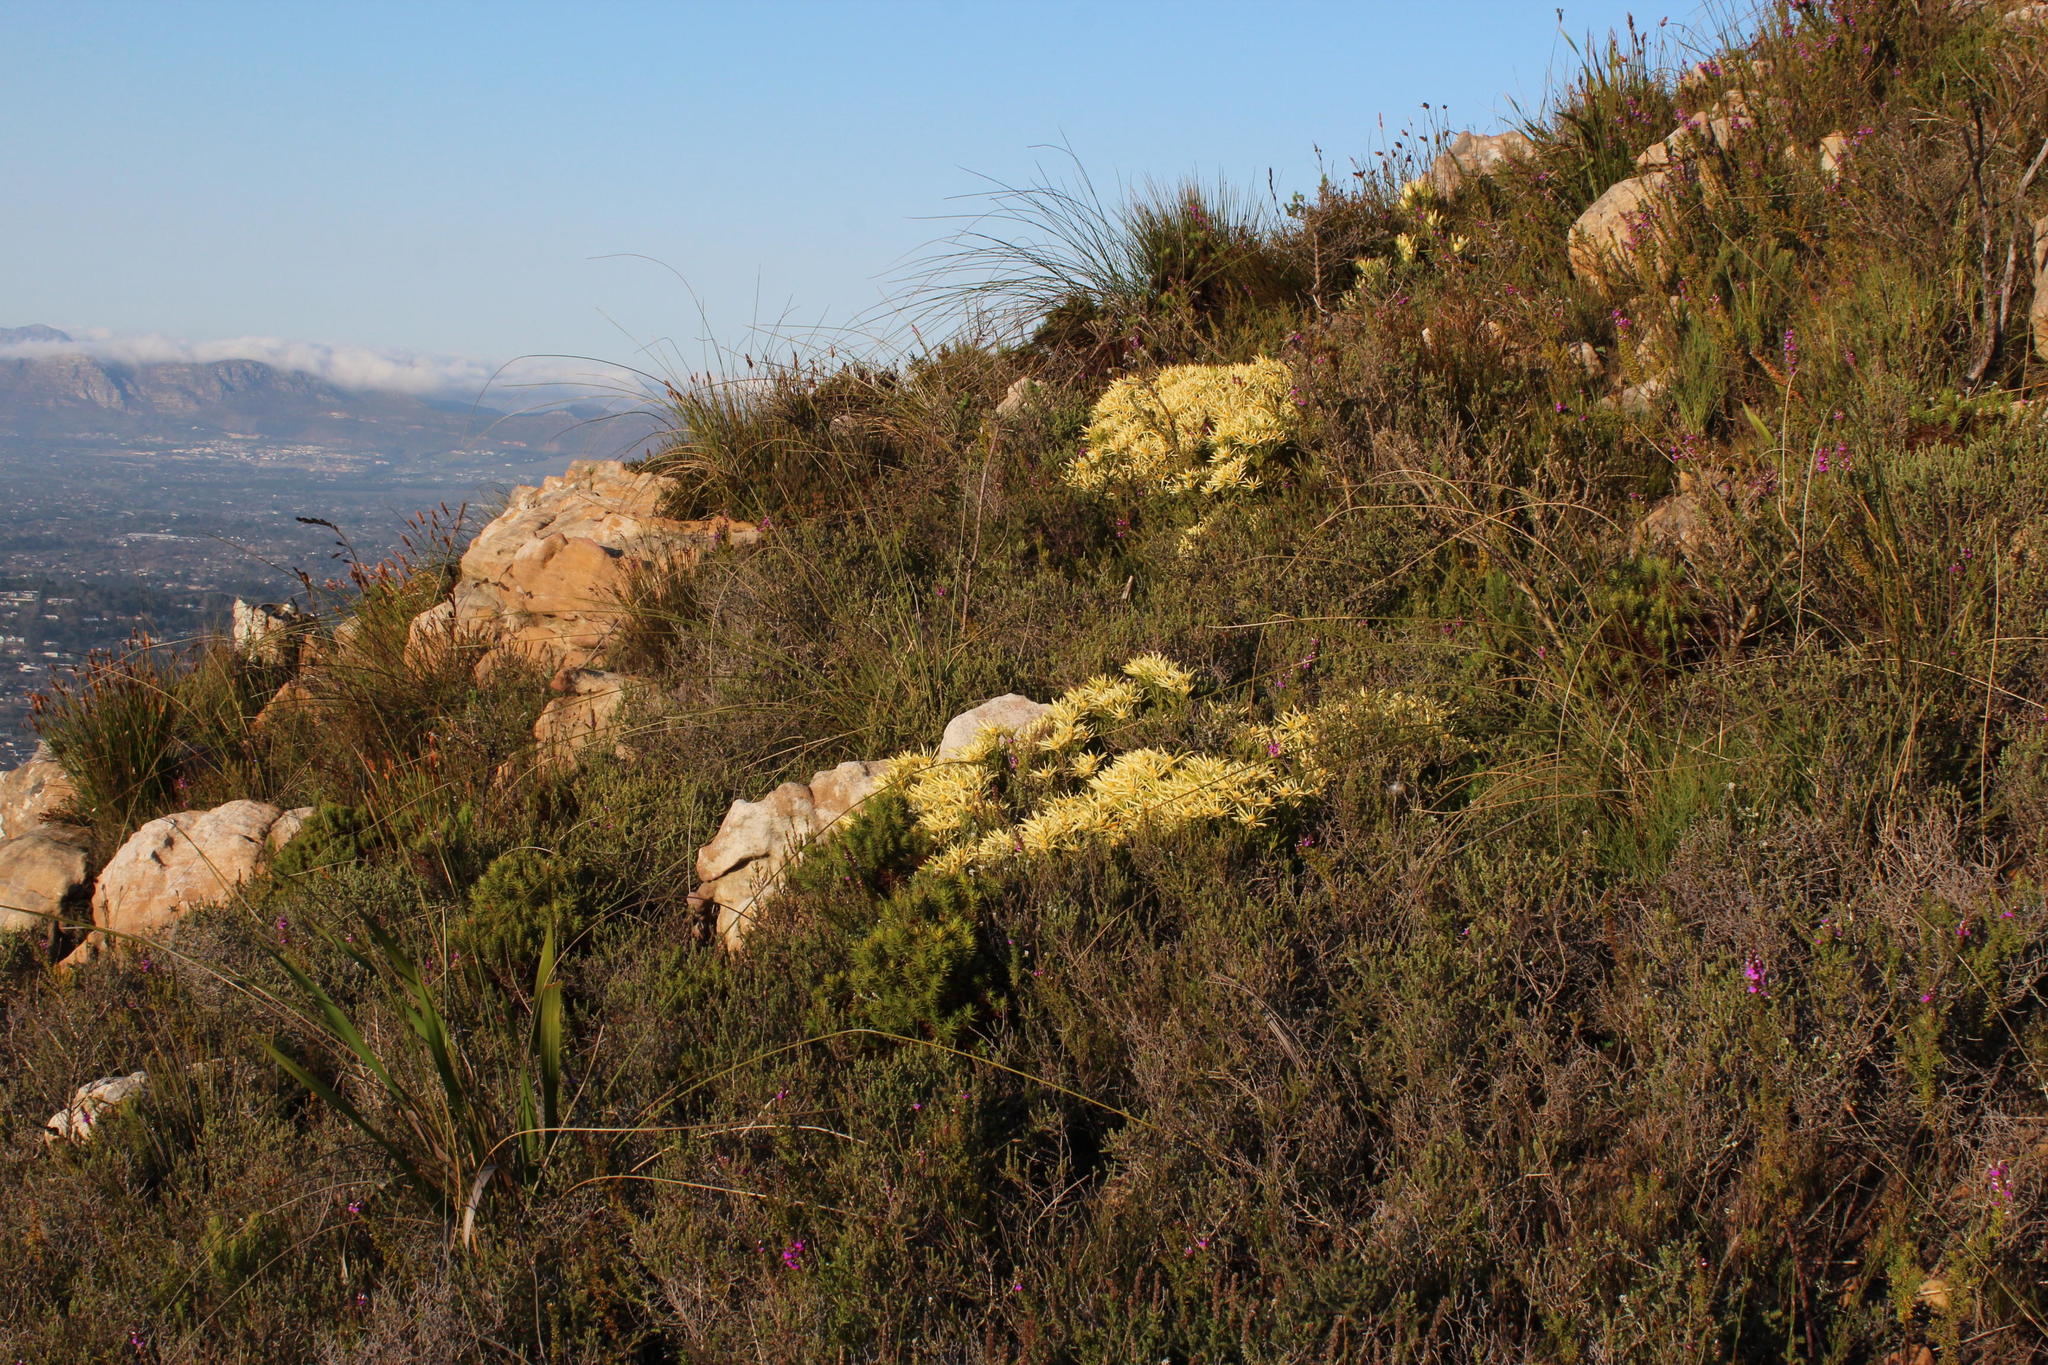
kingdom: Plantae
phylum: Tracheophyta
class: Magnoliopsida
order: Proteales
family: Proteaceae
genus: Leucadendron
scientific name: Leucadendron salignum
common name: Common sunshine conebush
